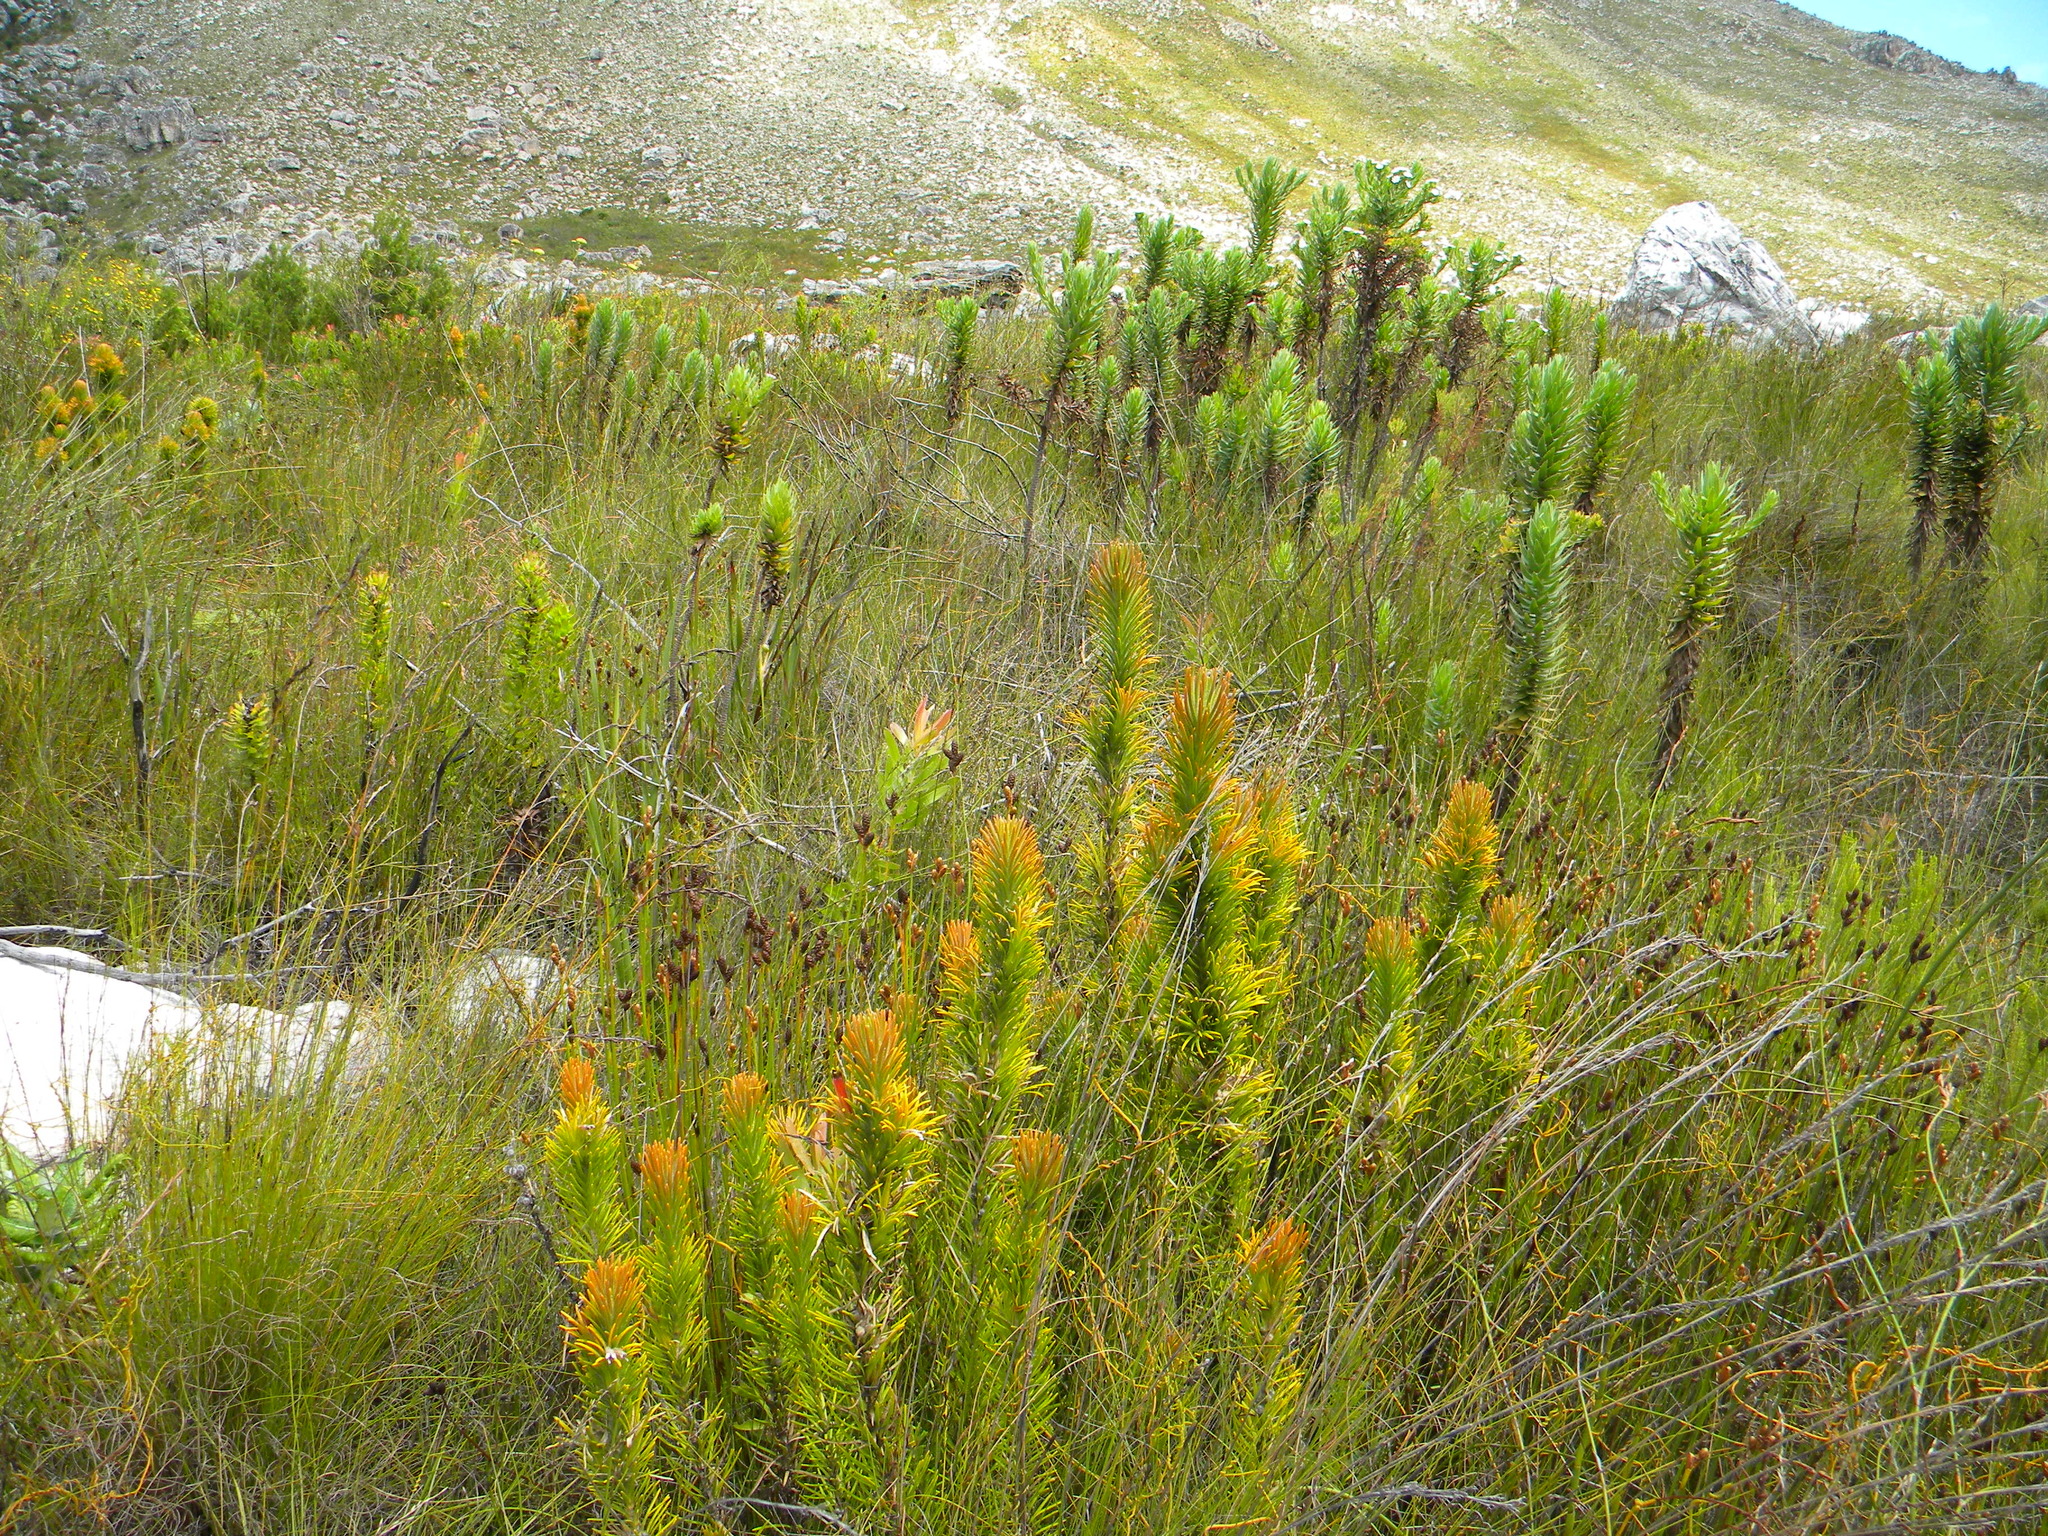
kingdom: Plantae
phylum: Tracheophyta
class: Magnoliopsida
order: Lamiales
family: Stilbaceae
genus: Retzia
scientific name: Retzia capensis
